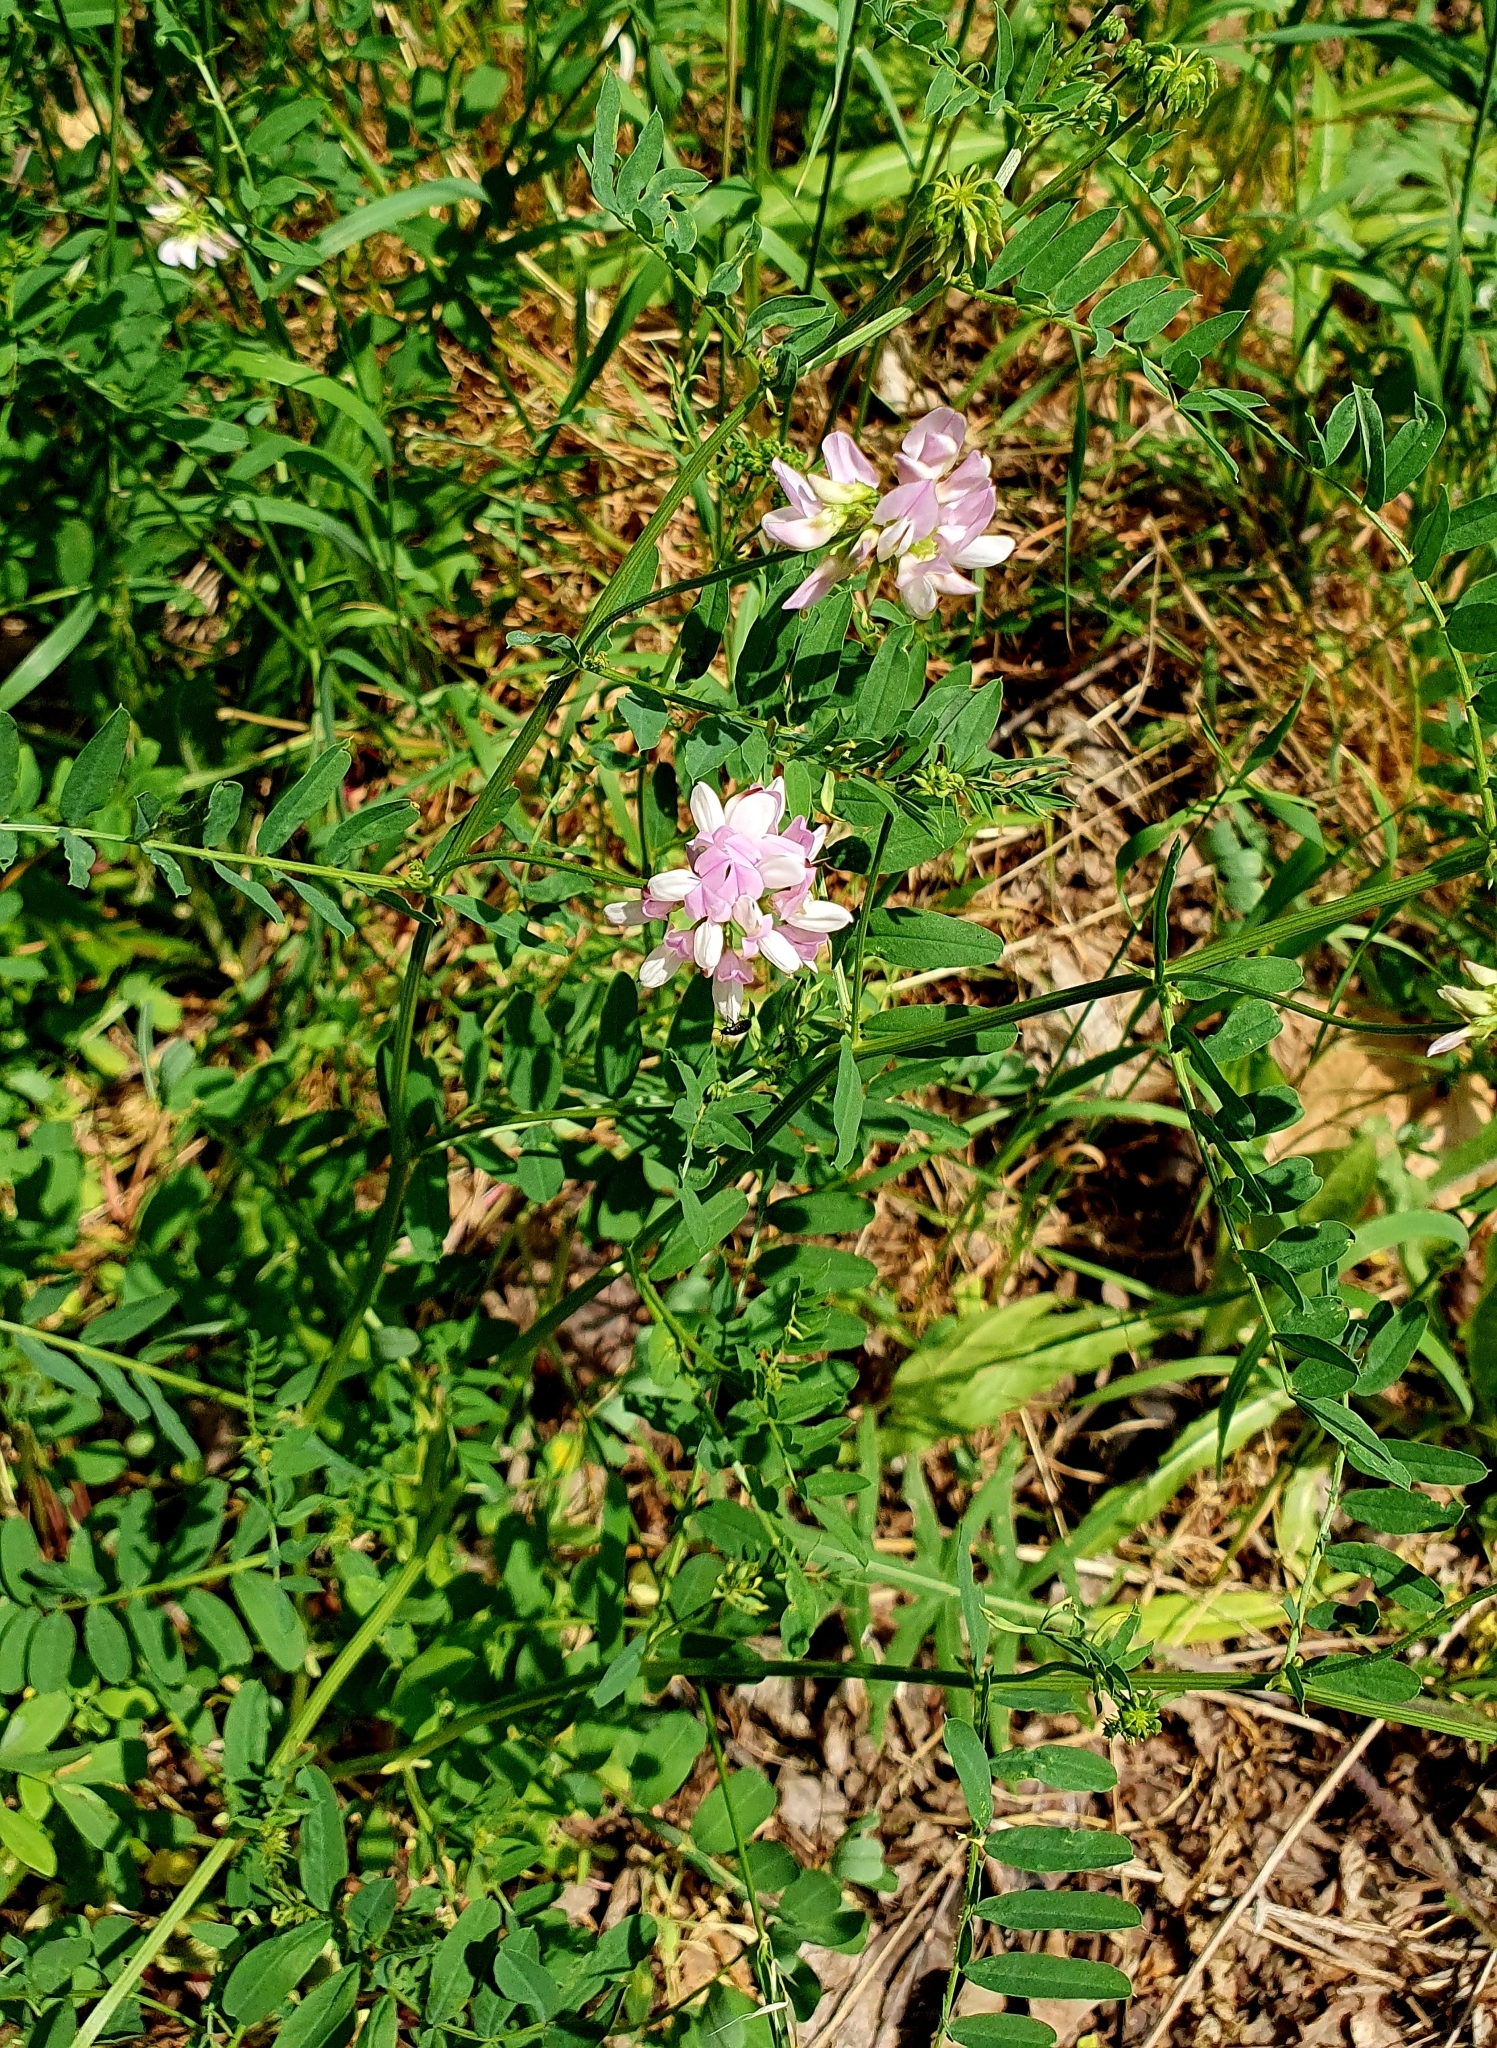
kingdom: Plantae
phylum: Tracheophyta
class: Magnoliopsida
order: Fabales
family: Fabaceae
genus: Coronilla
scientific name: Coronilla varia
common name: Crownvetch
